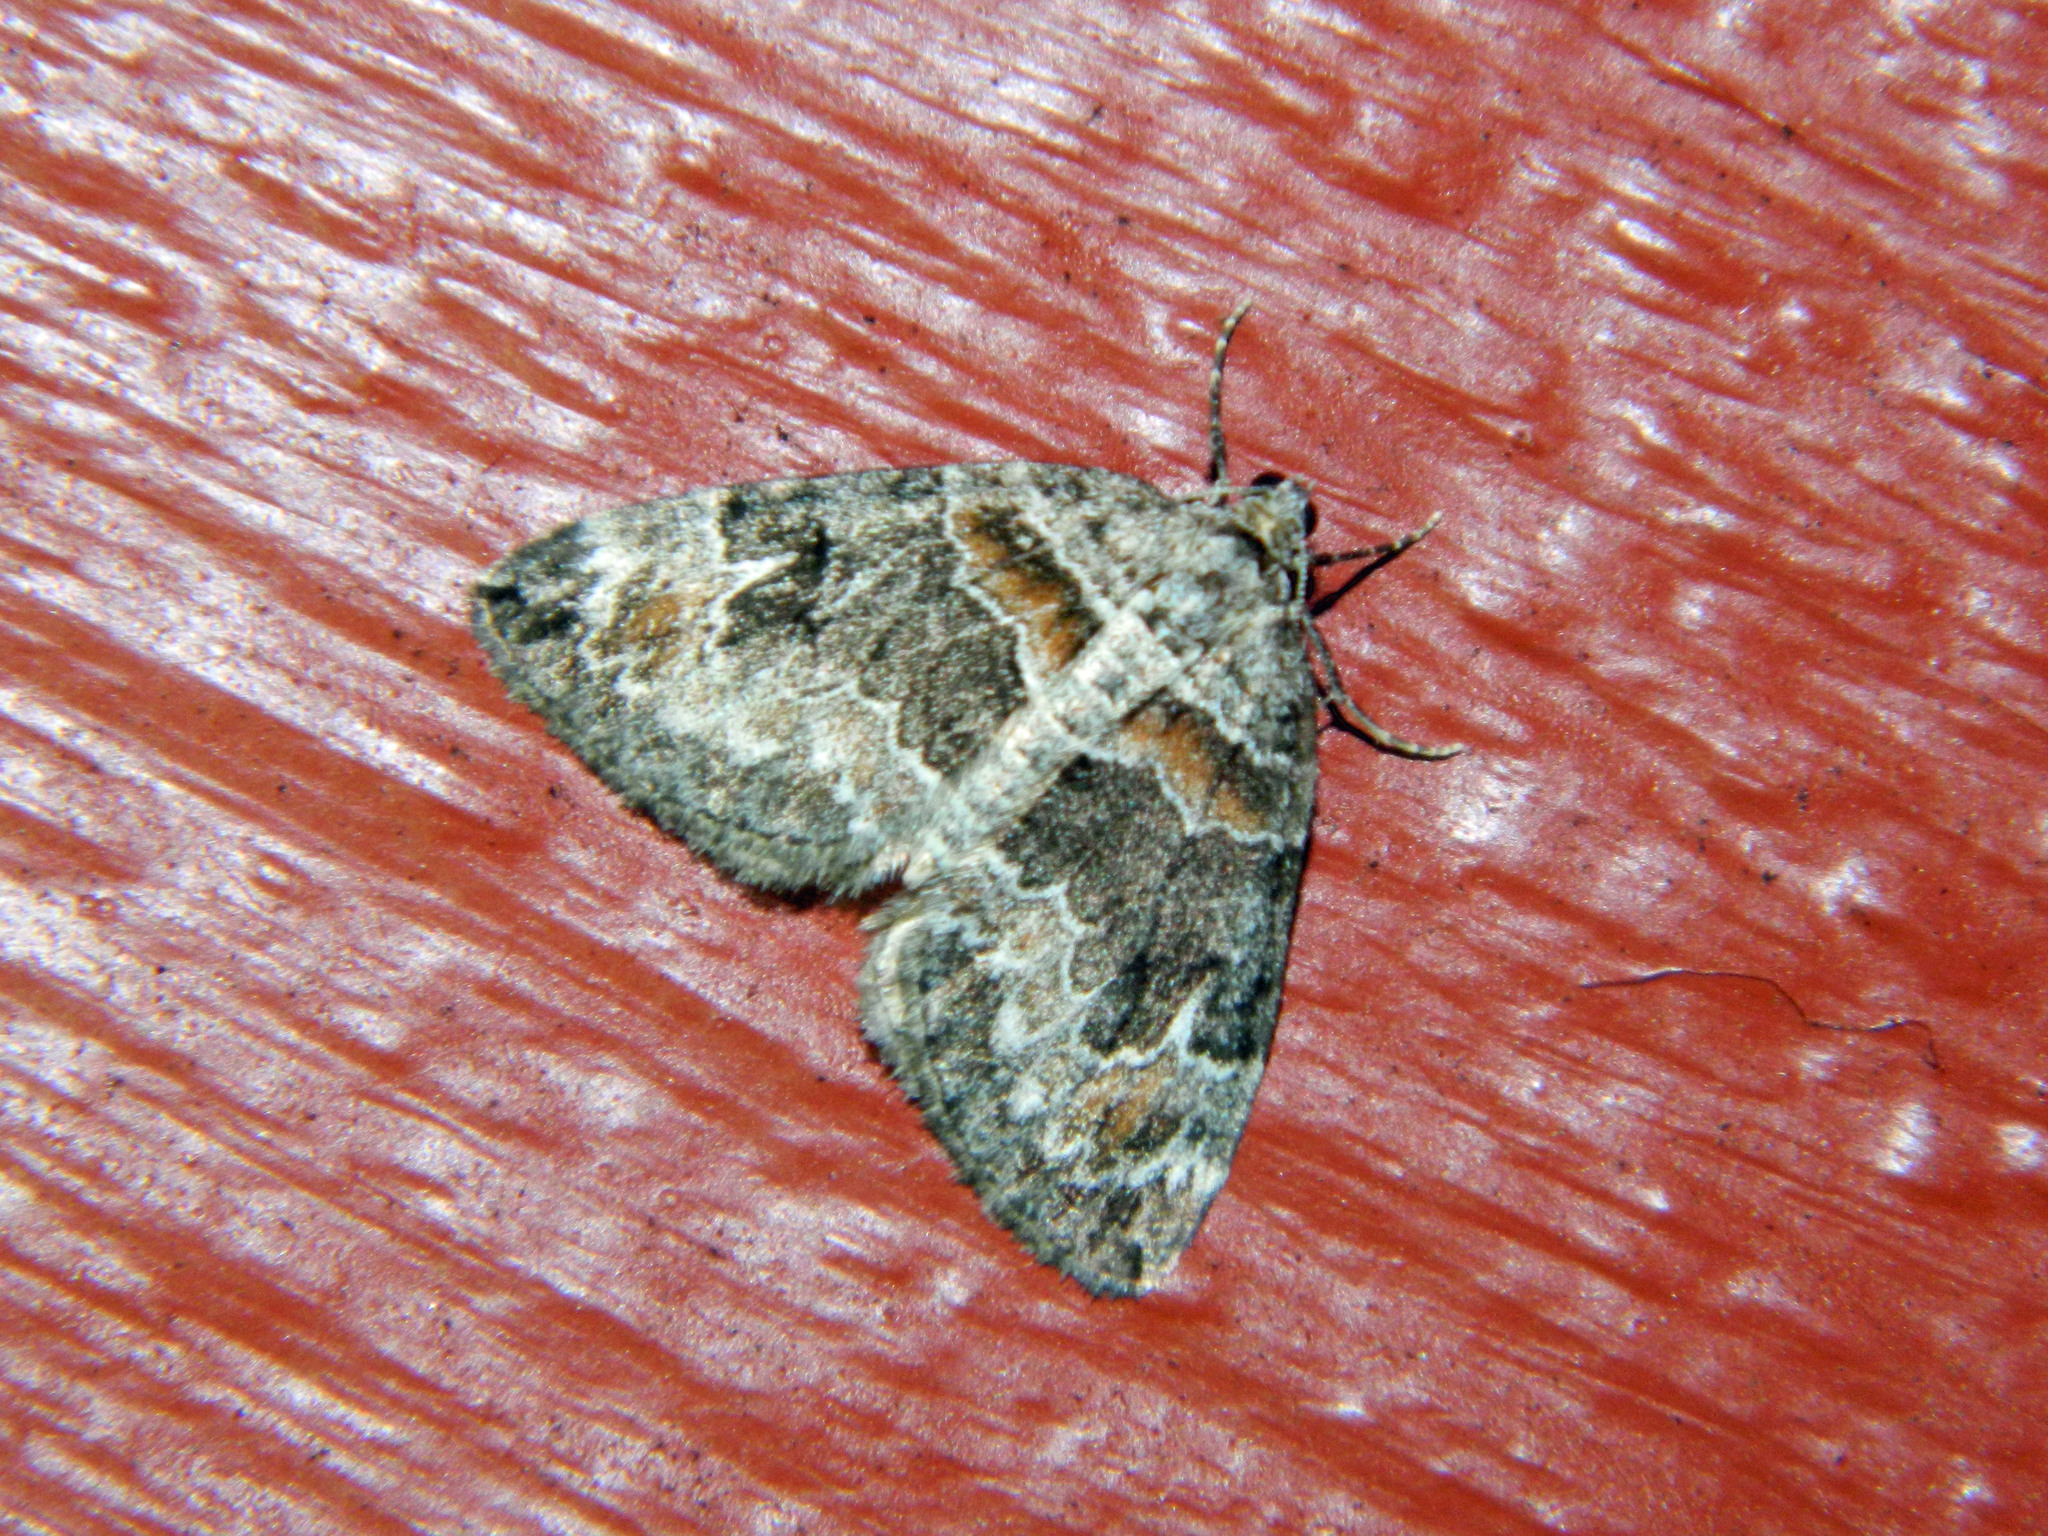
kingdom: Animalia
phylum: Arthropoda
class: Insecta
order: Lepidoptera
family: Geometridae
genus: Dysstroma
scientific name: Dysstroma hersiliata
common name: Orange-barred carpet
